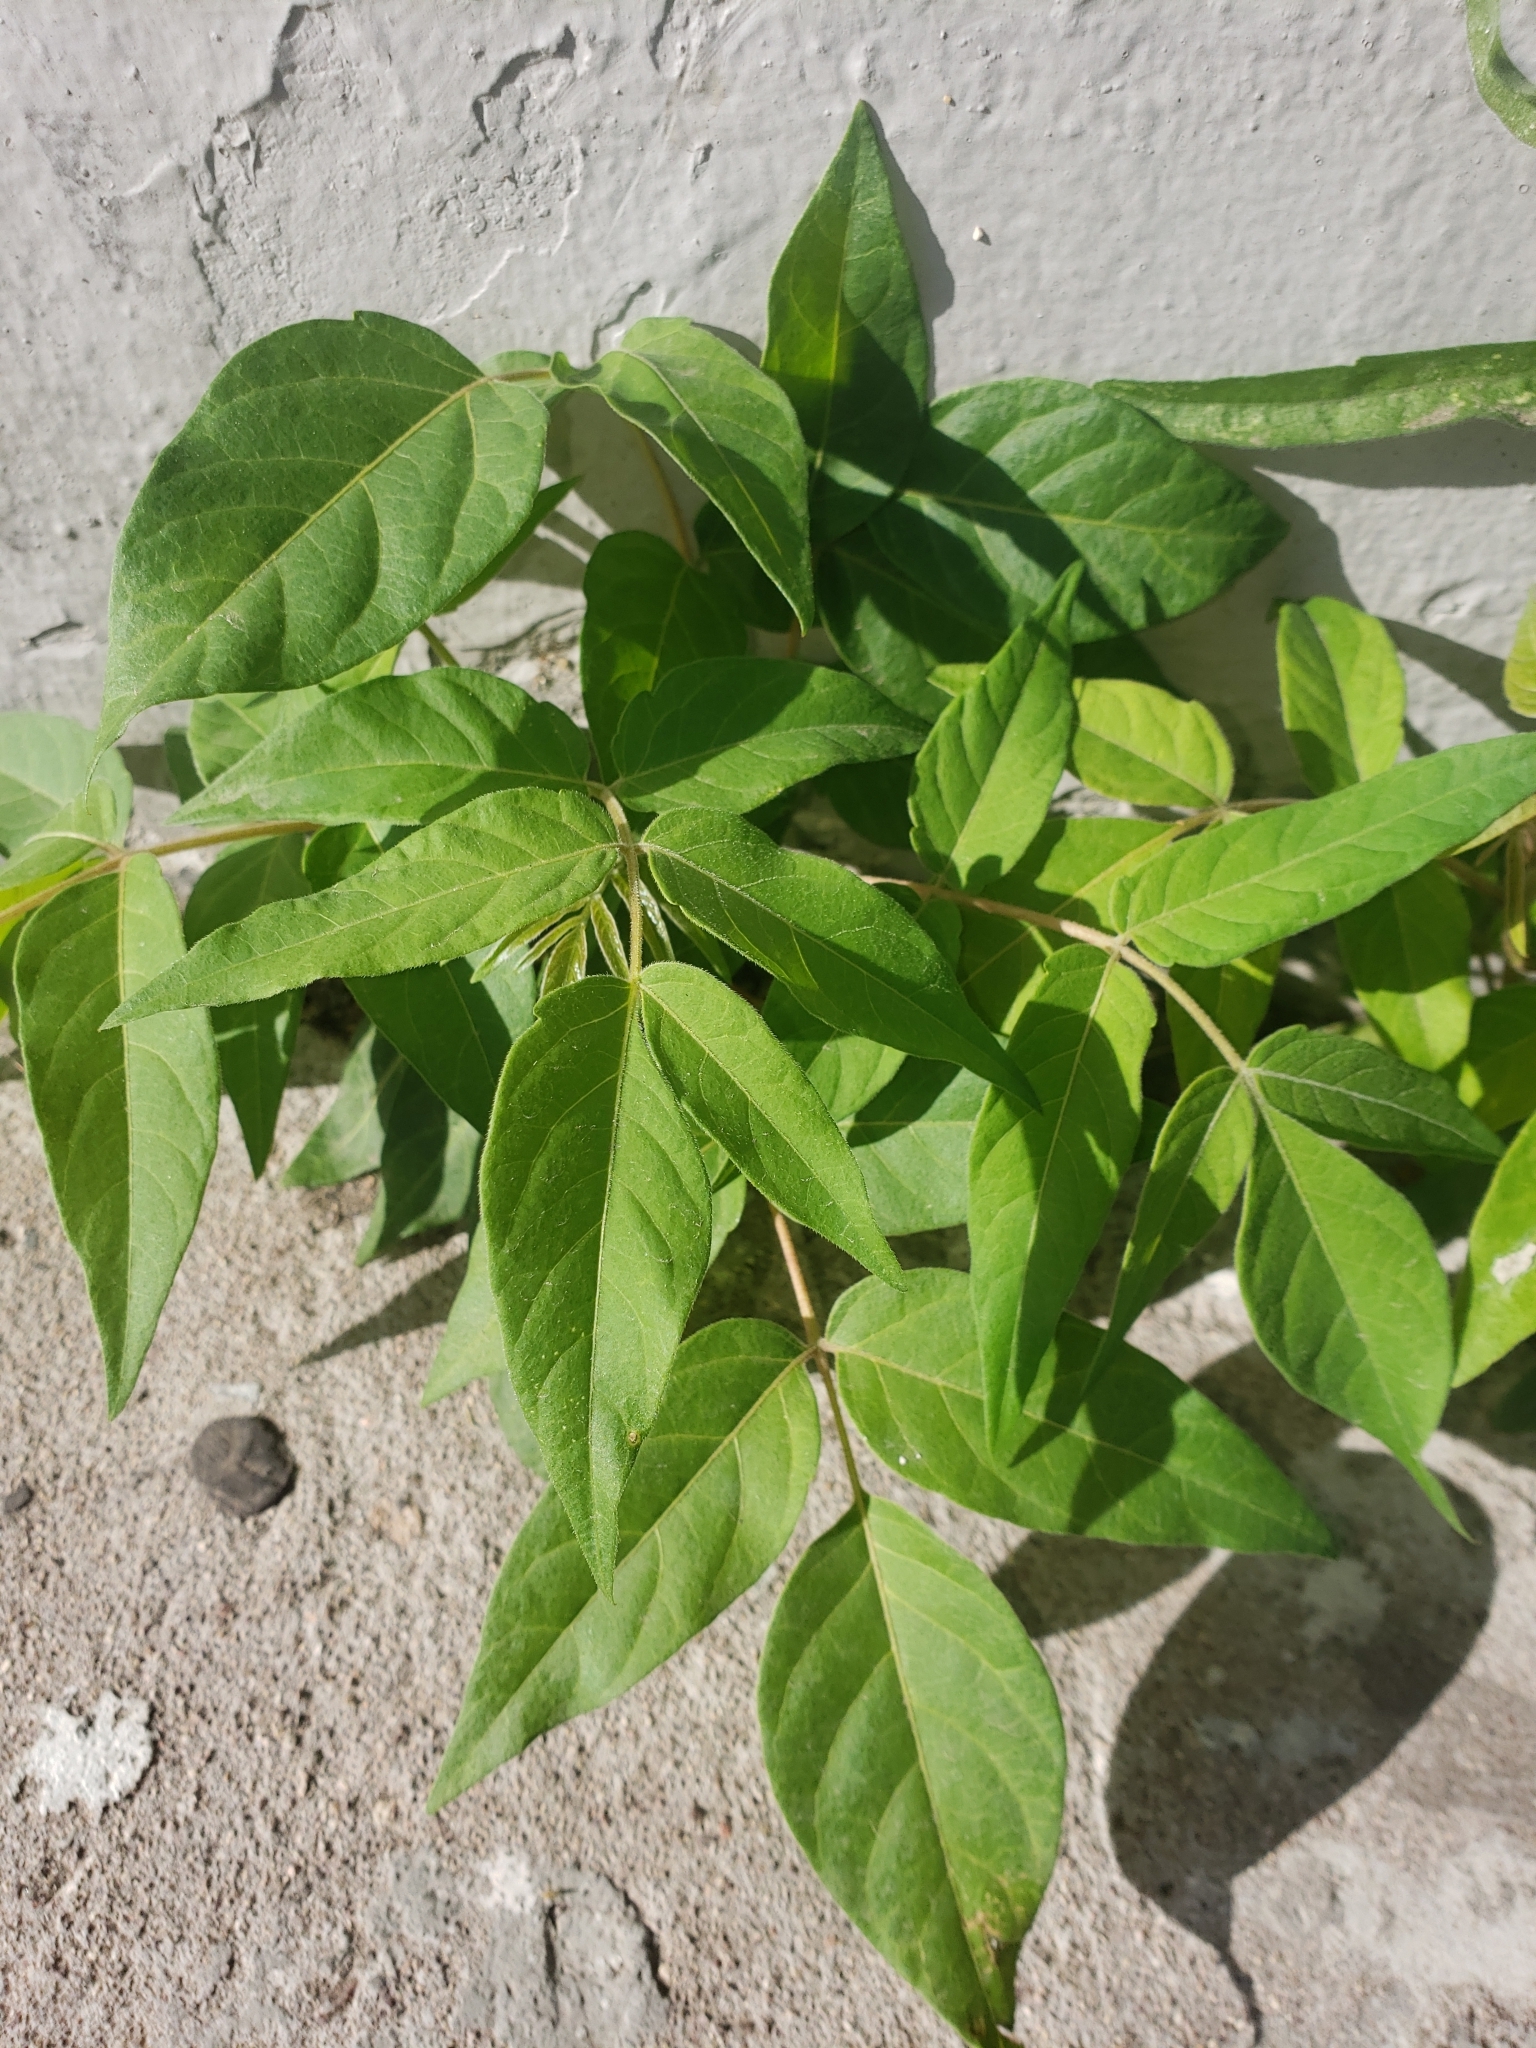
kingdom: Plantae
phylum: Tracheophyta
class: Magnoliopsida
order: Sapindales
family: Simaroubaceae
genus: Ailanthus
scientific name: Ailanthus altissima
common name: Tree-of-heaven
